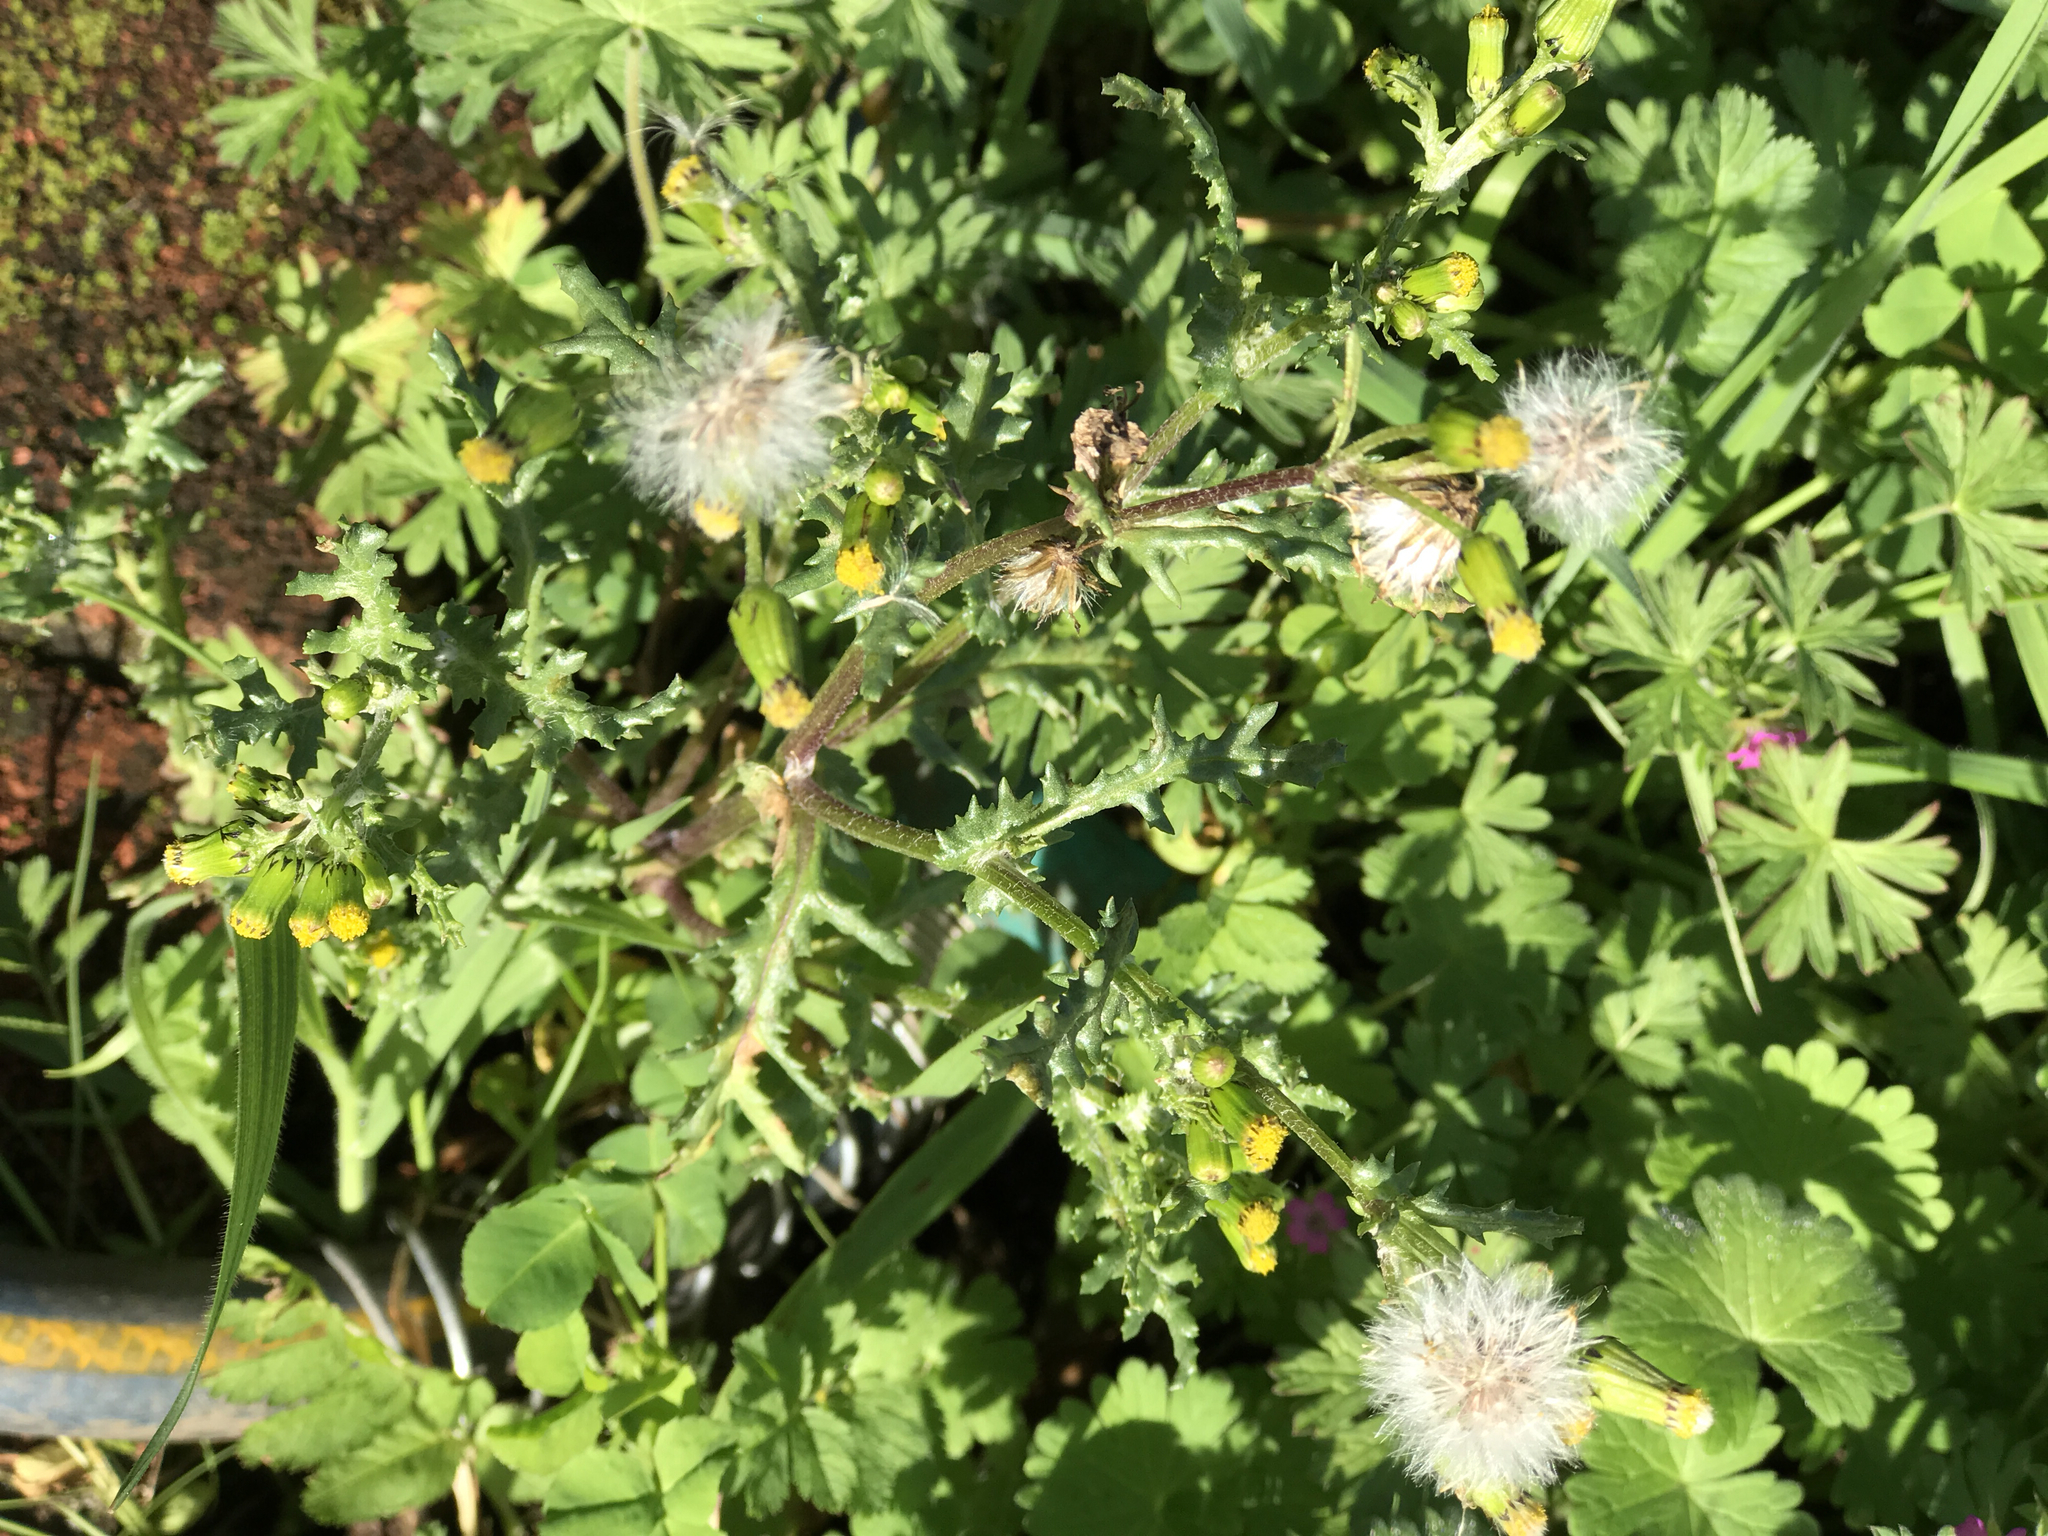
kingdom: Plantae
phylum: Tracheophyta
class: Magnoliopsida
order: Asterales
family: Asteraceae
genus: Senecio
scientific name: Senecio vulgaris
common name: Old-man-in-the-spring
